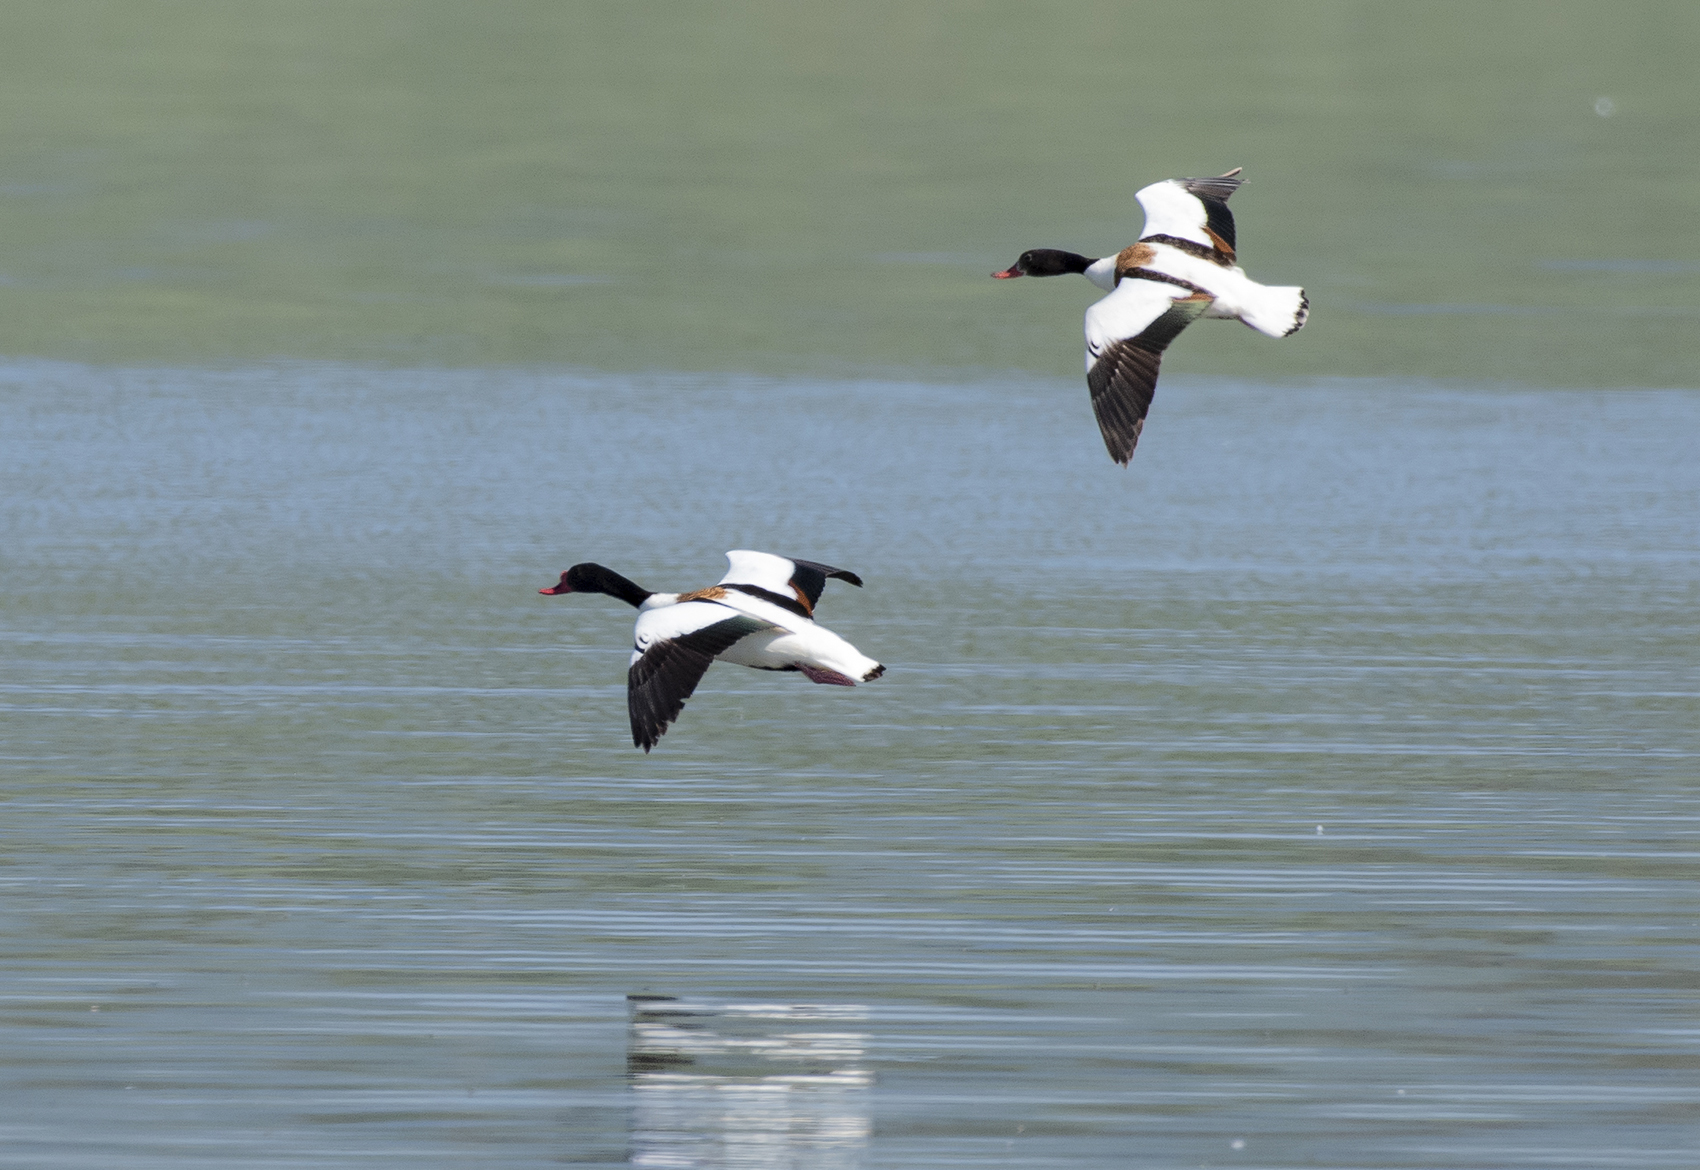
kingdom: Animalia
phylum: Chordata
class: Aves
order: Anseriformes
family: Anatidae
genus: Tadorna
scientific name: Tadorna tadorna
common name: Common shelduck
